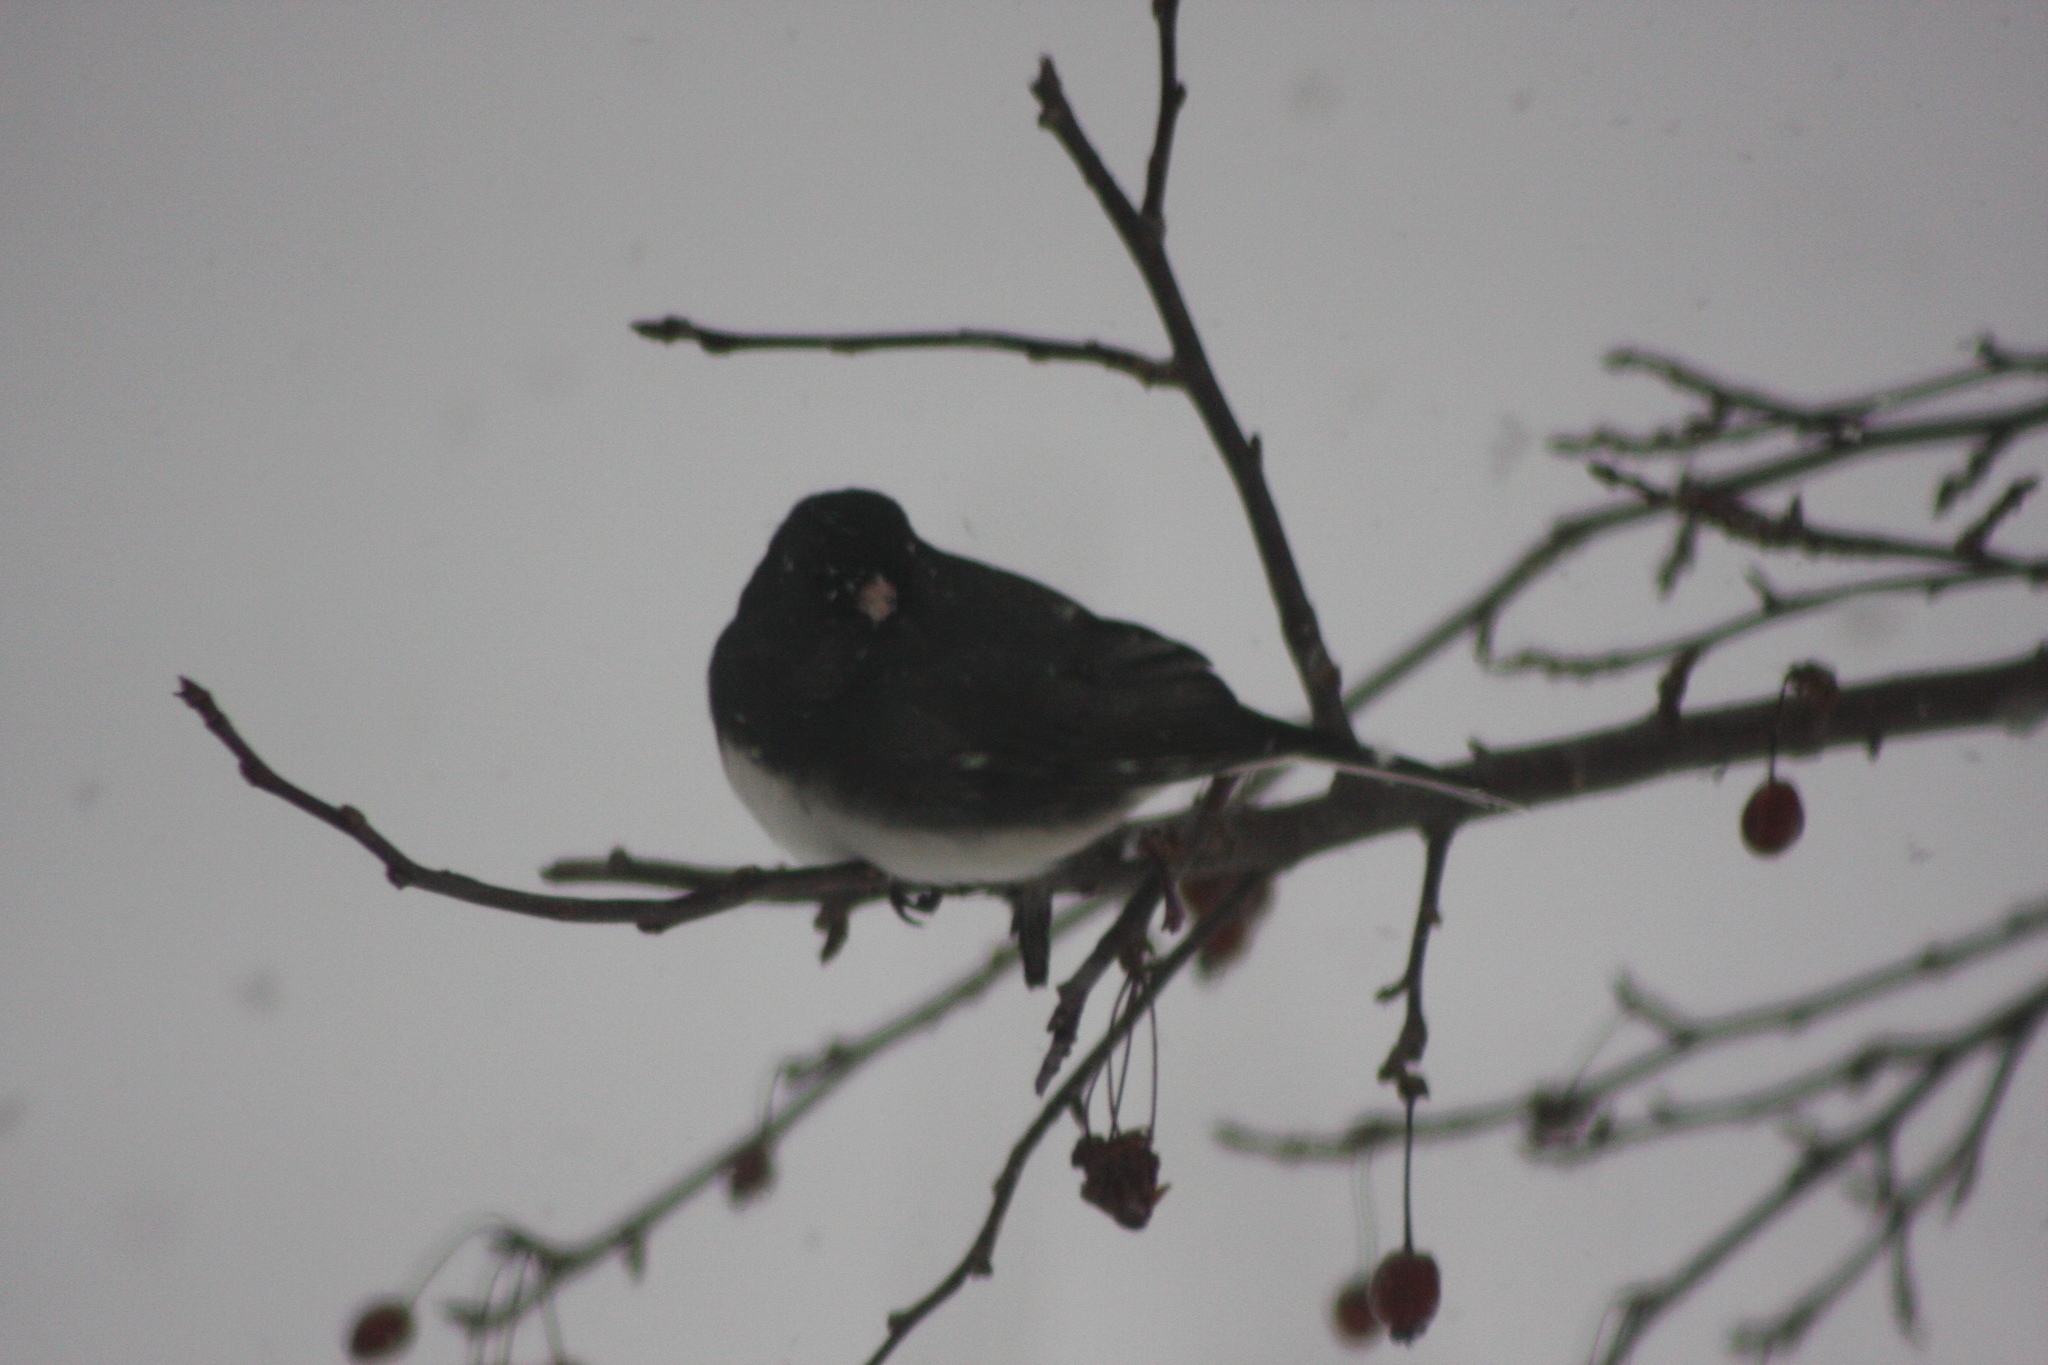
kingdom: Animalia
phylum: Chordata
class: Aves
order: Passeriformes
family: Passerellidae
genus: Junco
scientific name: Junco hyemalis
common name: Dark-eyed junco
